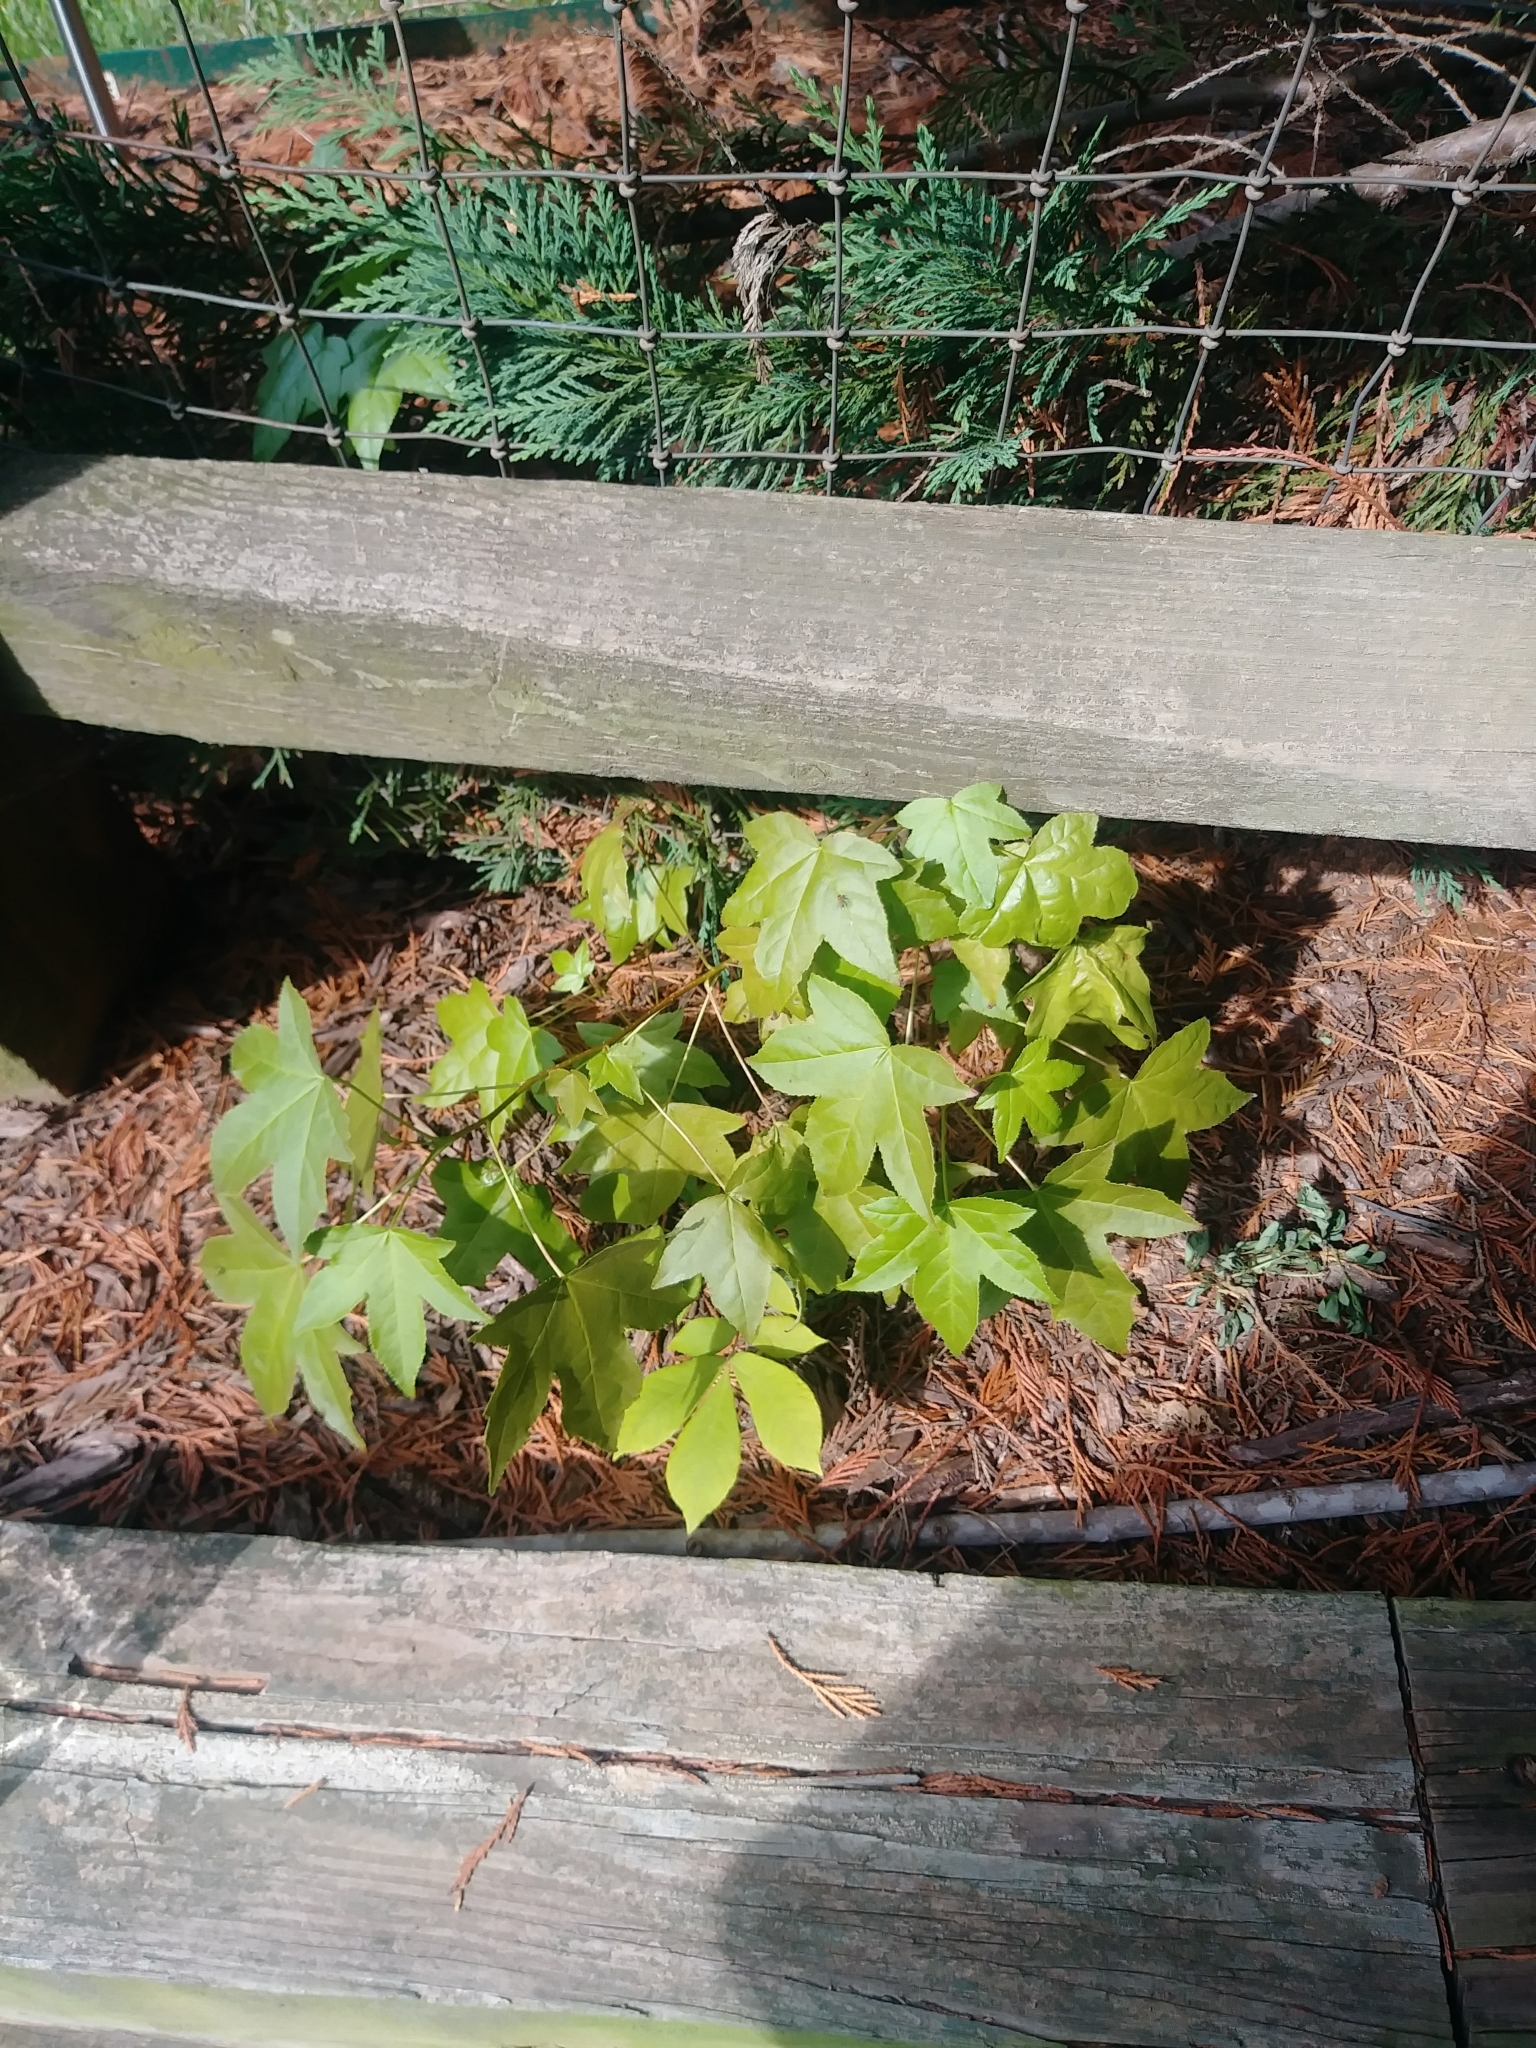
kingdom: Plantae
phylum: Tracheophyta
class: Magnoliopsida
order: Saxifragales
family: Altingiaceae
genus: Liquidambar
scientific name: Liquidambar styraciflua
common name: Sweet gum
